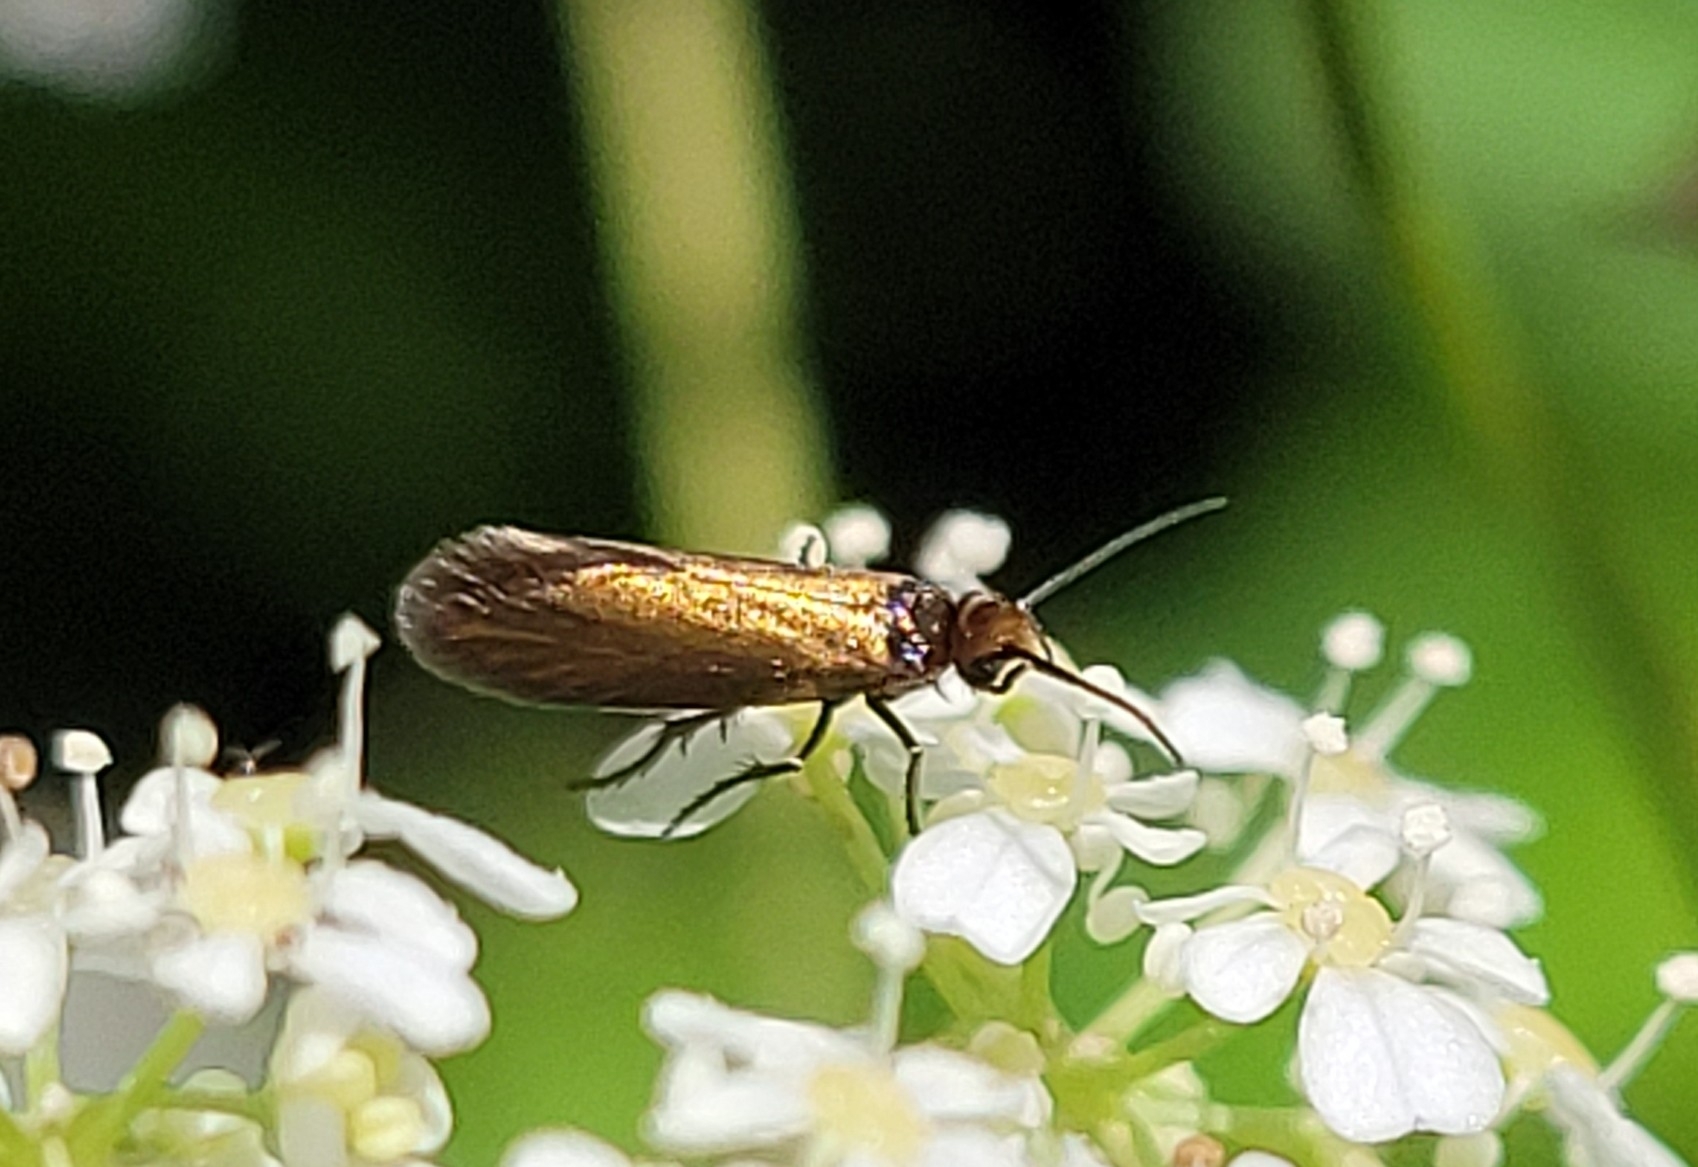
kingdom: Animalia
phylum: Arthropoda
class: Insecta
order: Lepidoptera
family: Micropterigidae
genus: Micropterix
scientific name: Micropterix calthella
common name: Plain gold
